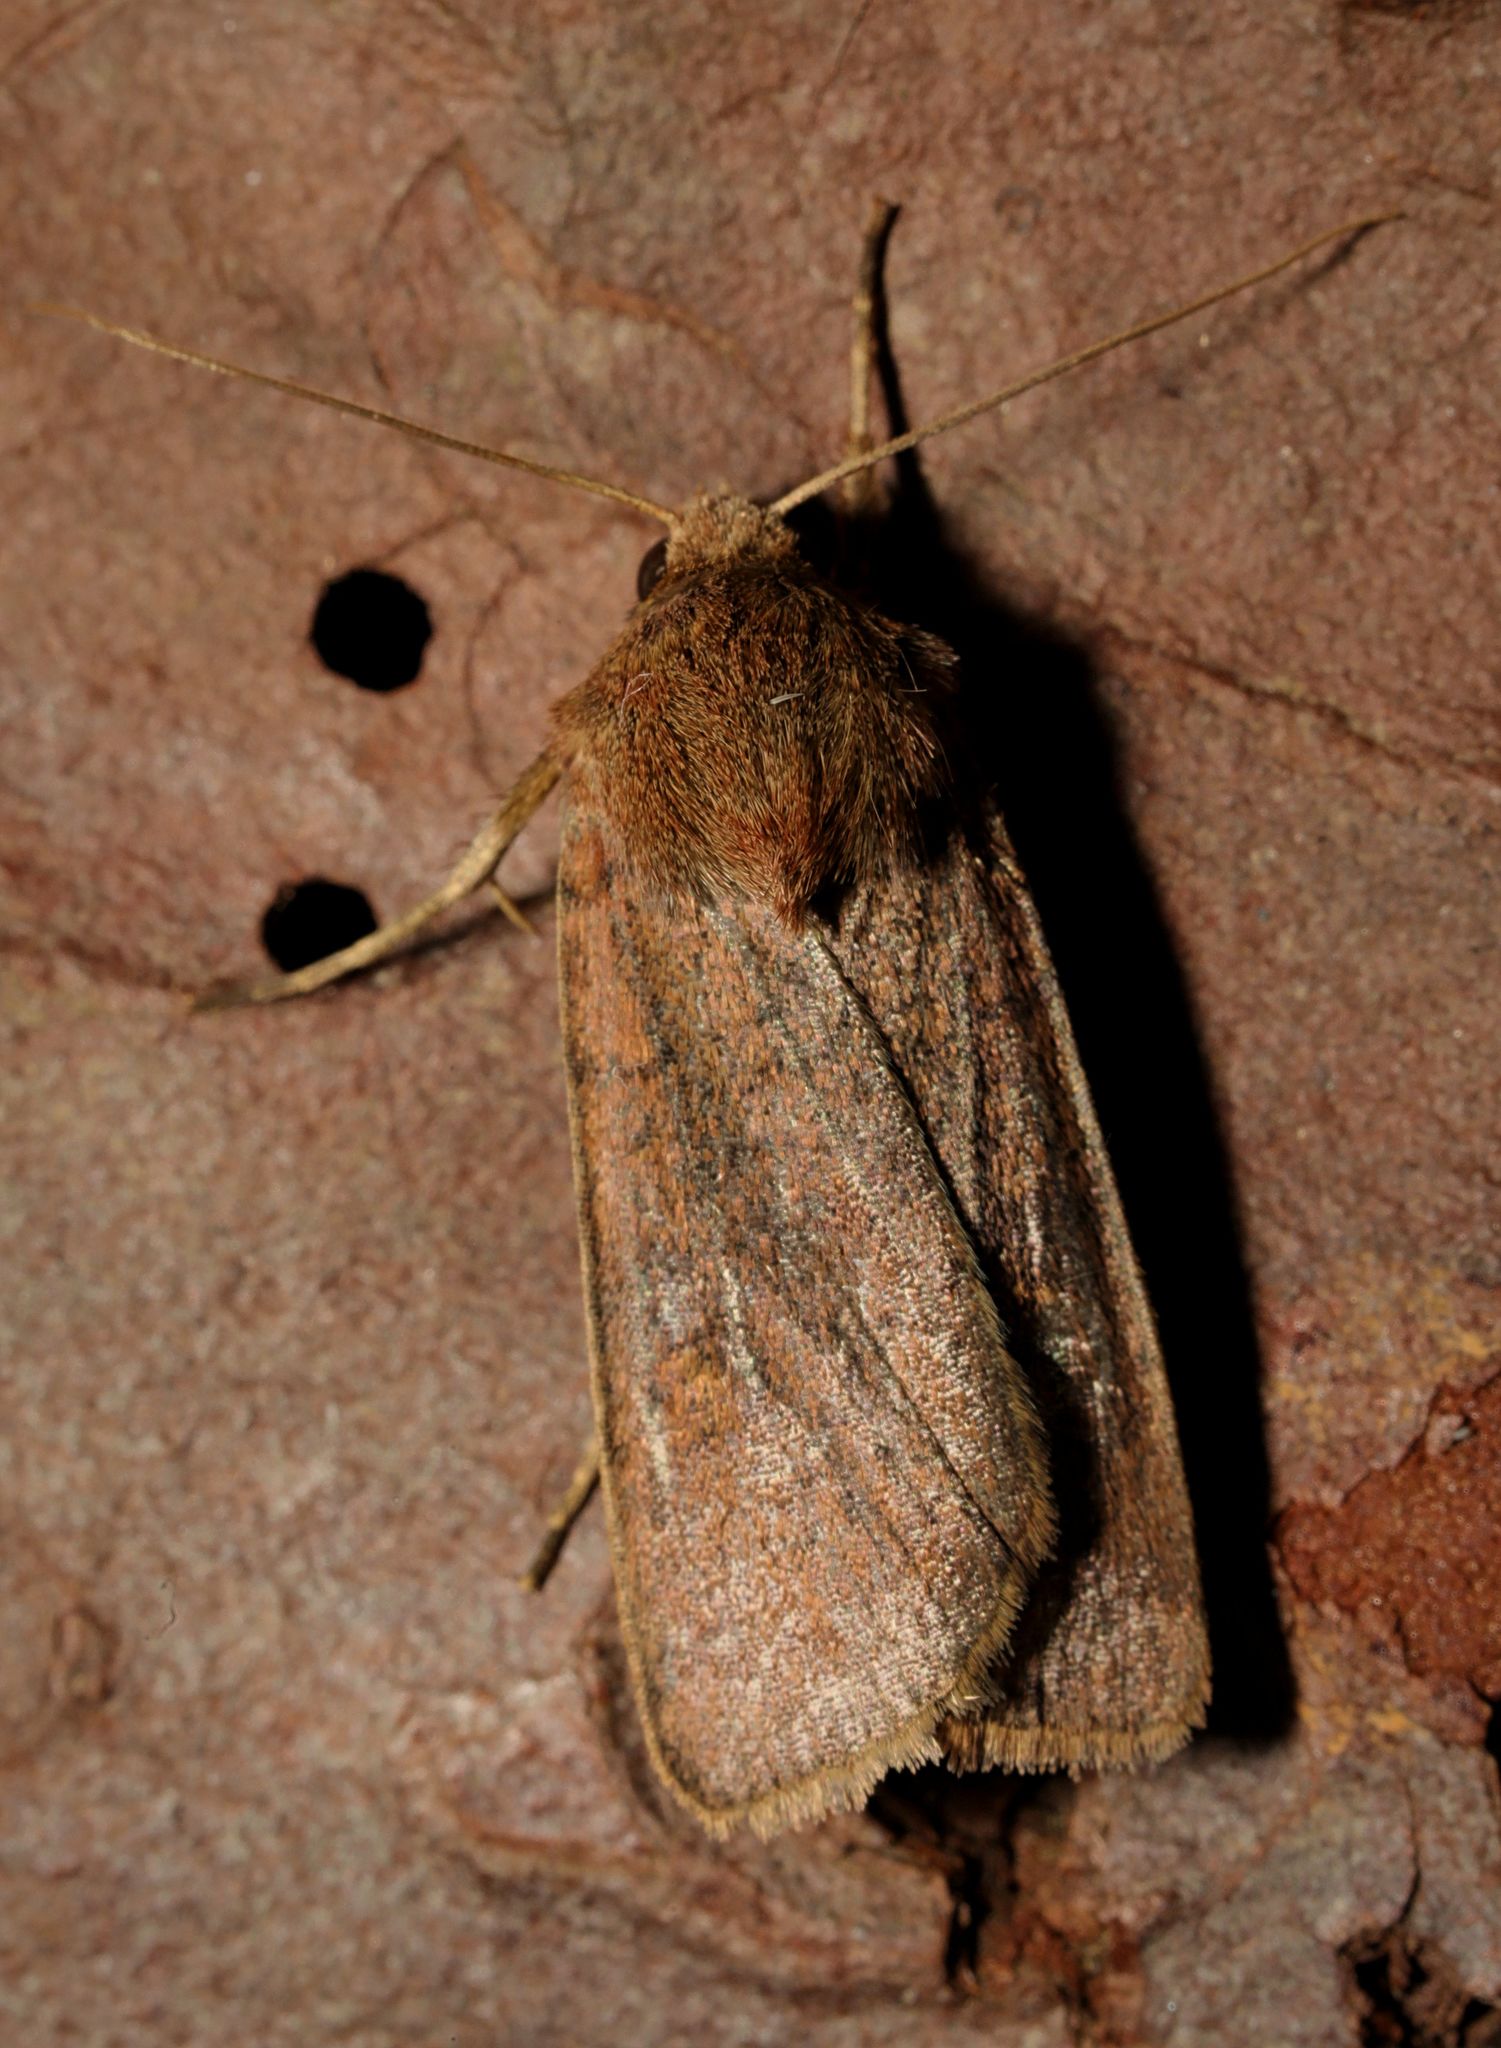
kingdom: Animalia
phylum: Arthropoda
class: Insecta
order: Lepidoptera
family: Noctuidae
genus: Xestia
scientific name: Xestia xanthographa
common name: Square-spot rustic
